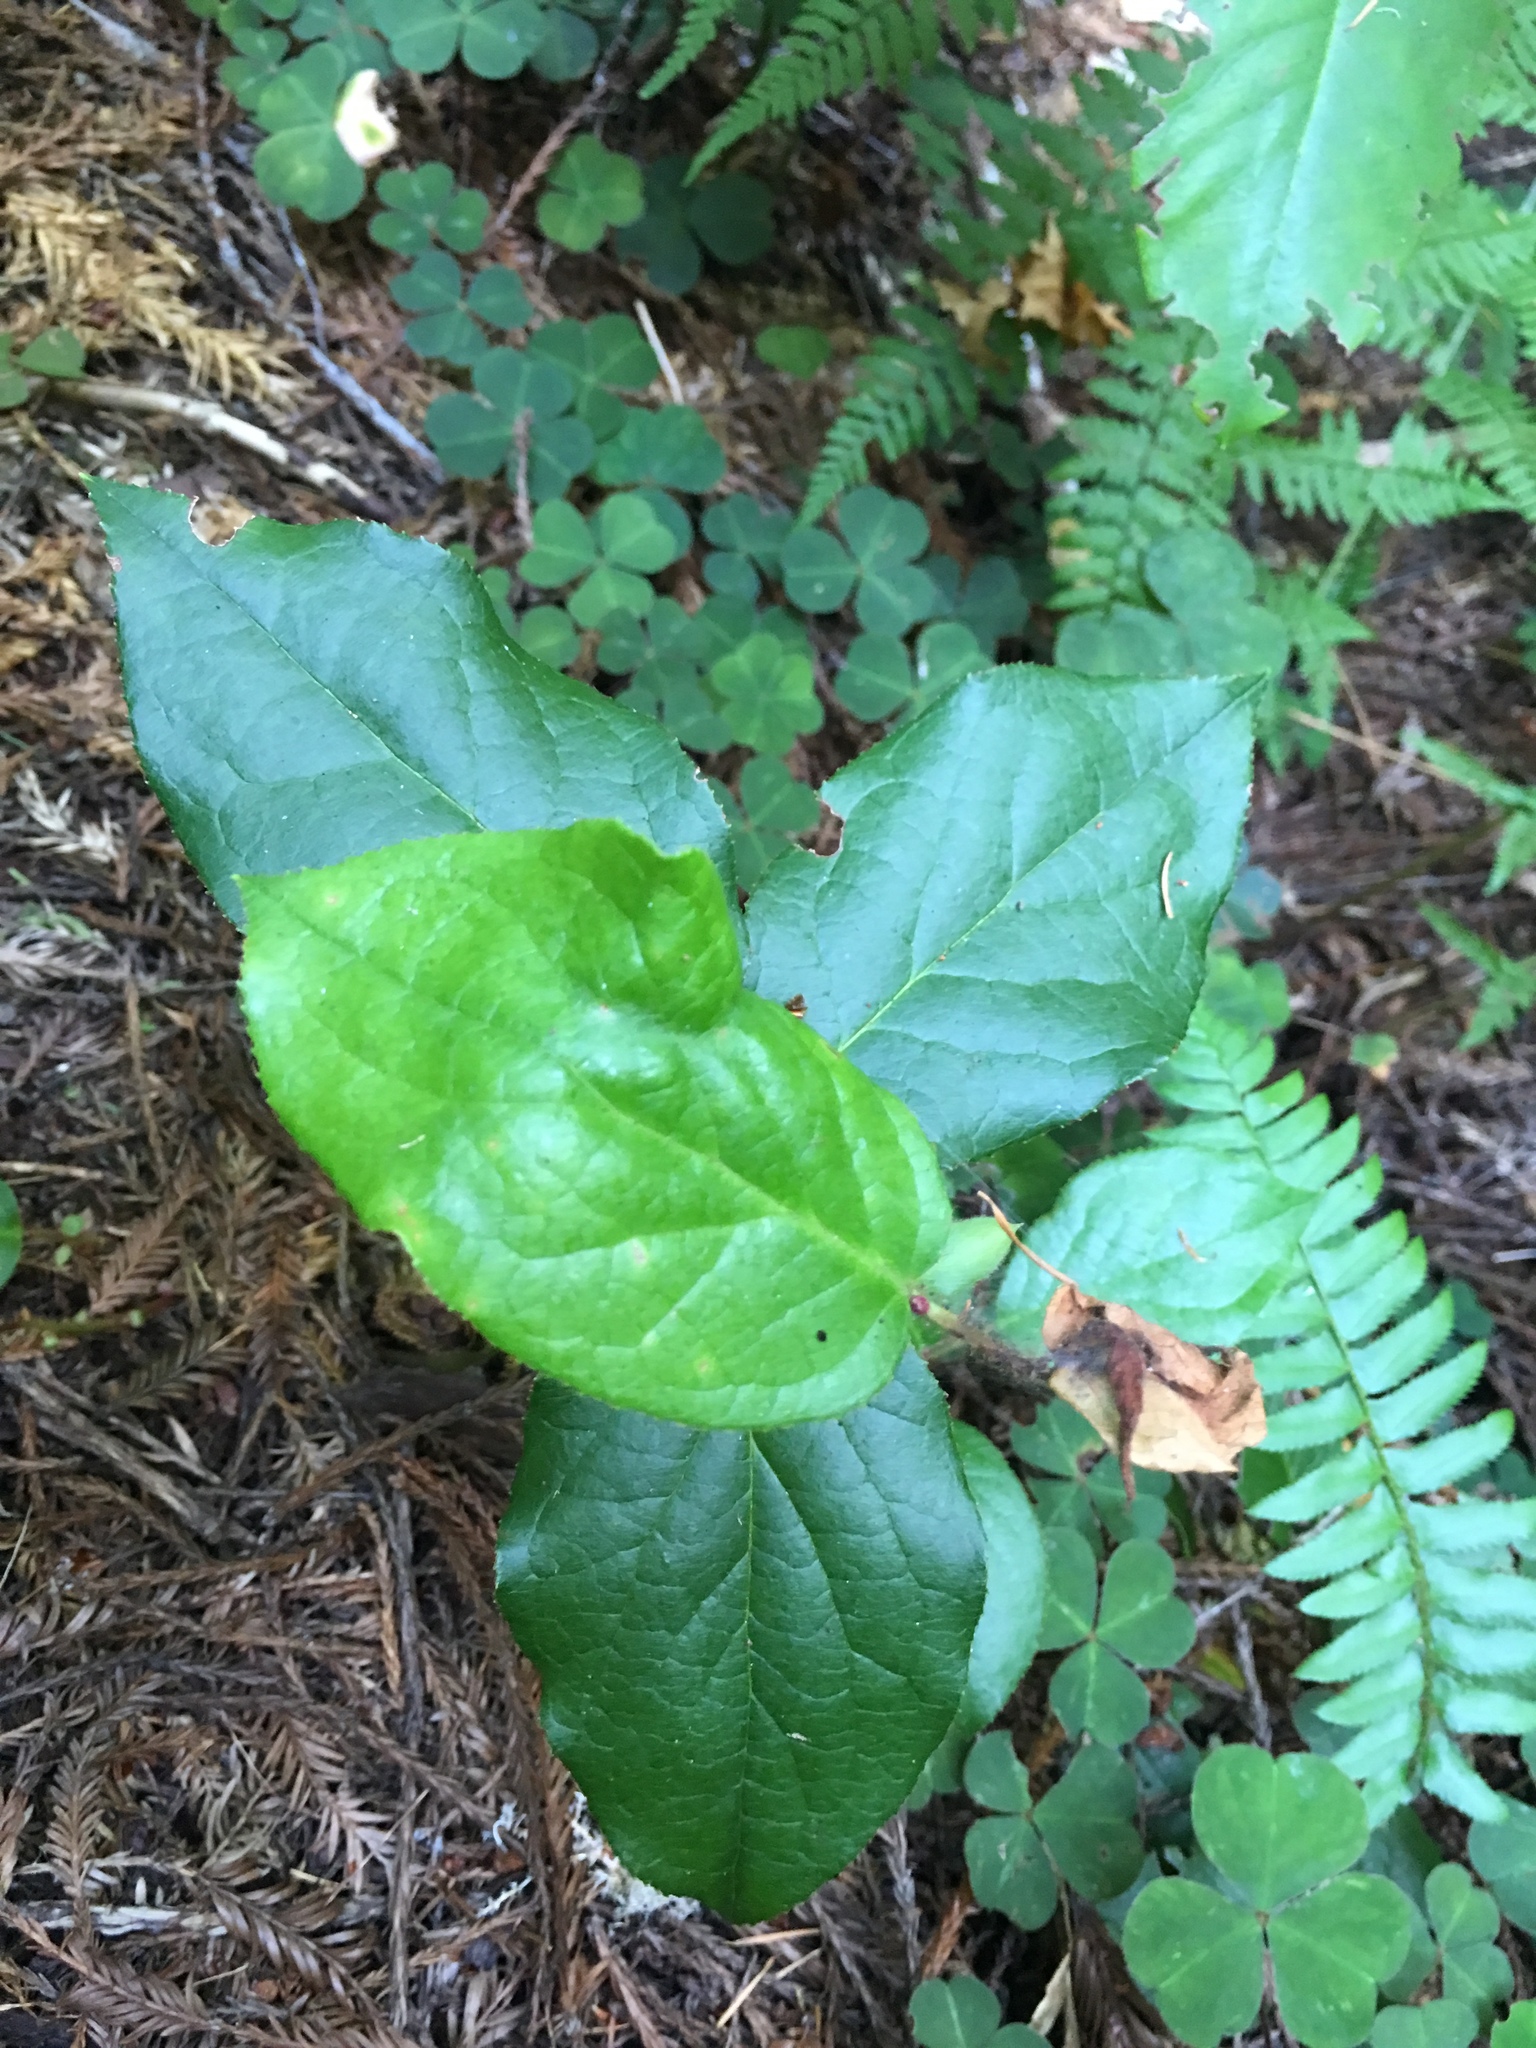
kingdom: Plantae
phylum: Tracheophyta
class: Magnoliopsida
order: Ericales
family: Ericaceae
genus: Gaultheria
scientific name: Gaultheria shallon
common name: Shallon
